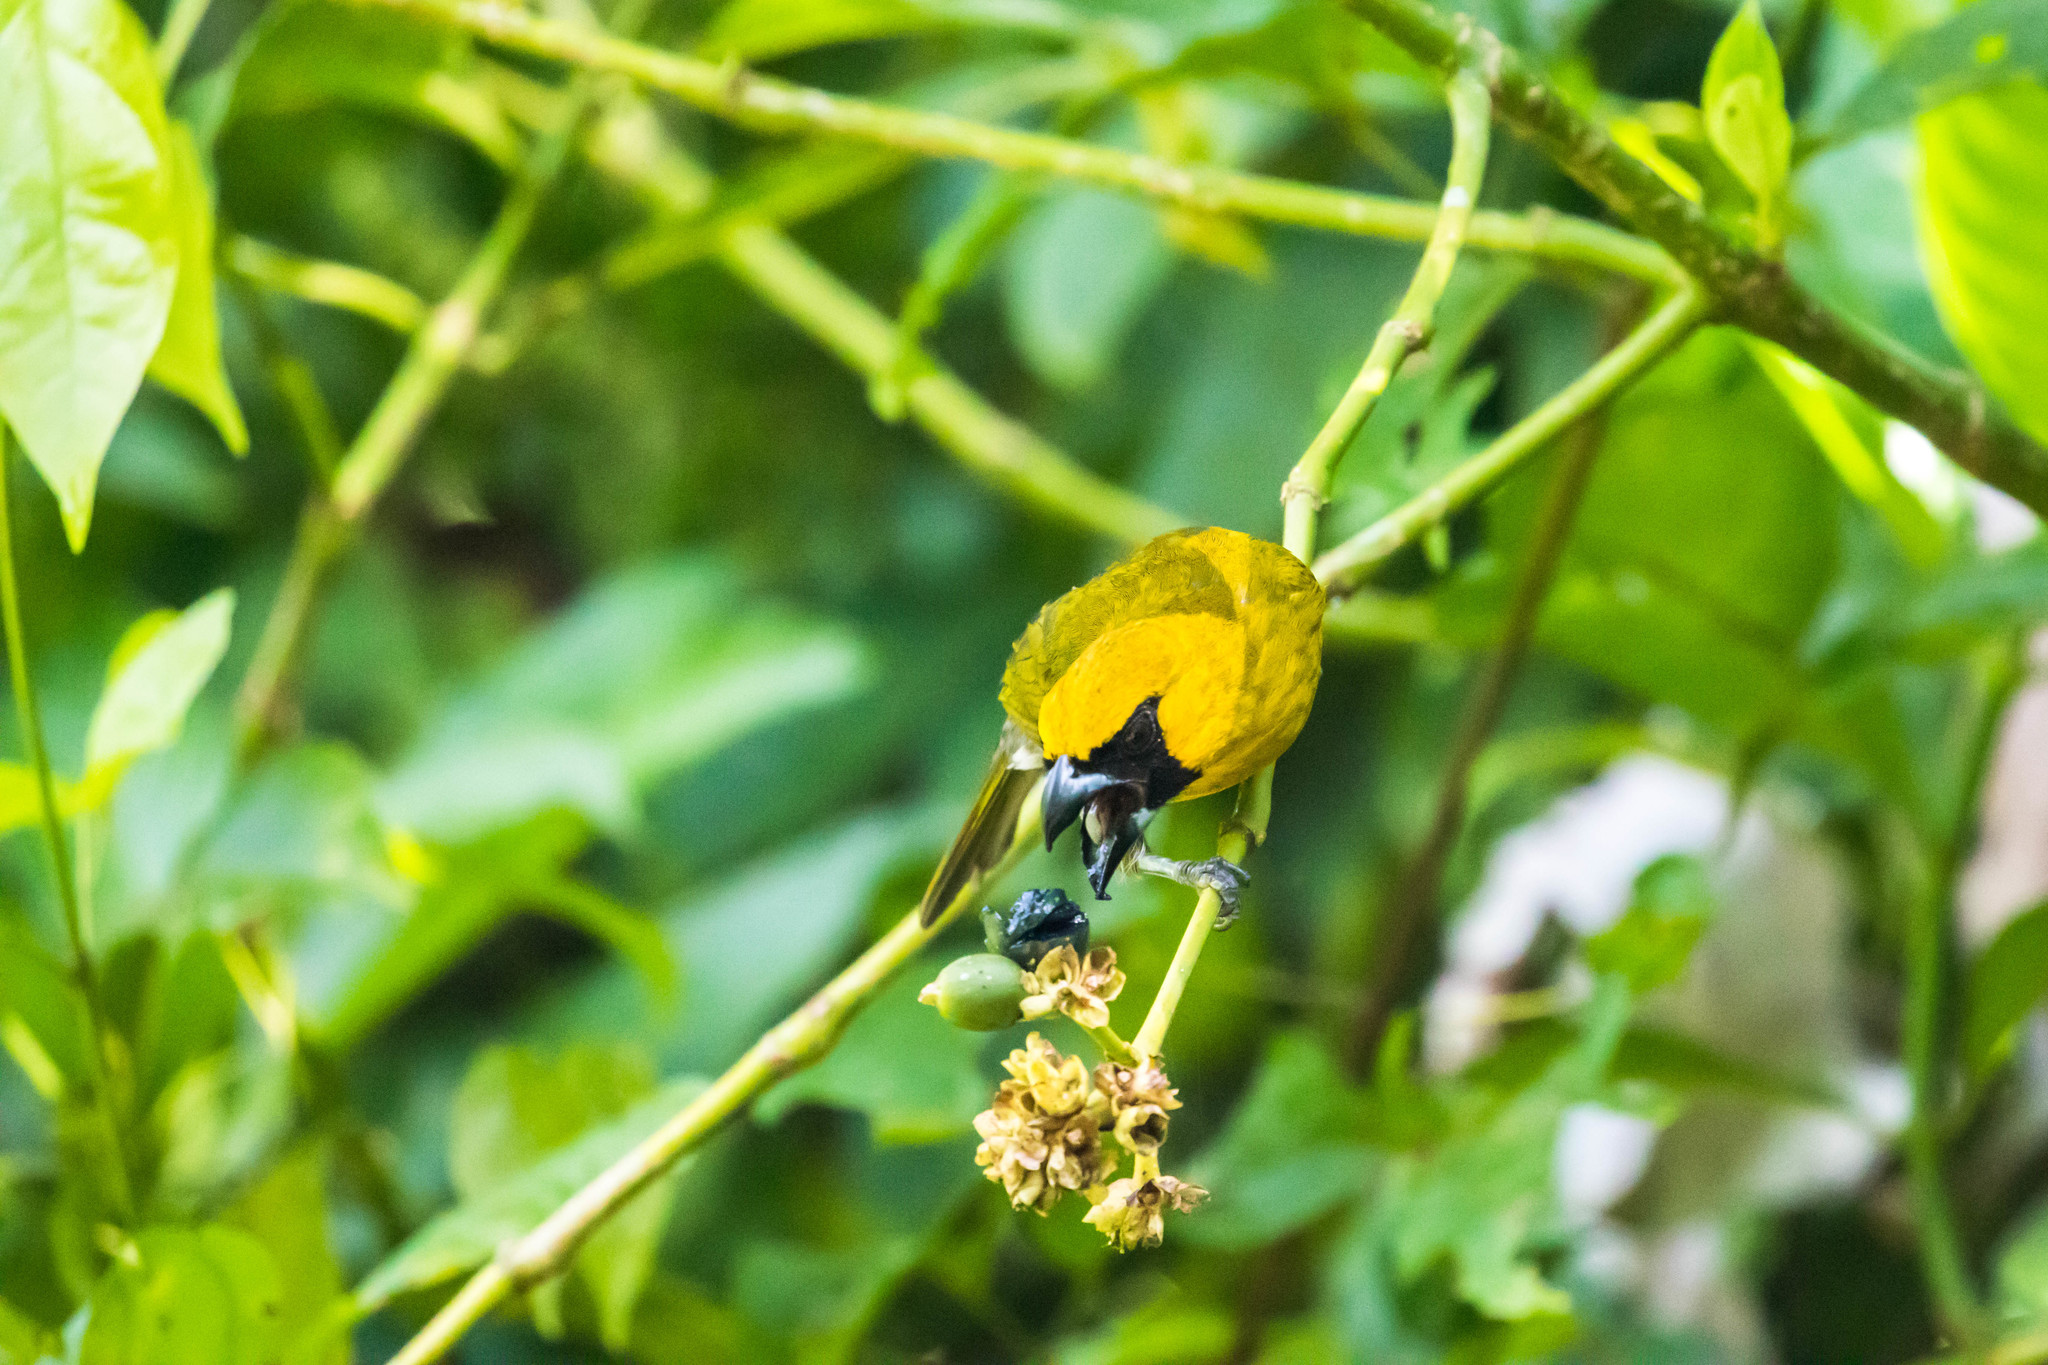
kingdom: Animalia
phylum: Chordata
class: Aves
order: Passeriformes
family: Cardinalidae
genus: Caryothraustes
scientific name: Caryothraustes poliogaster
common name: Black-faced grosbeak
